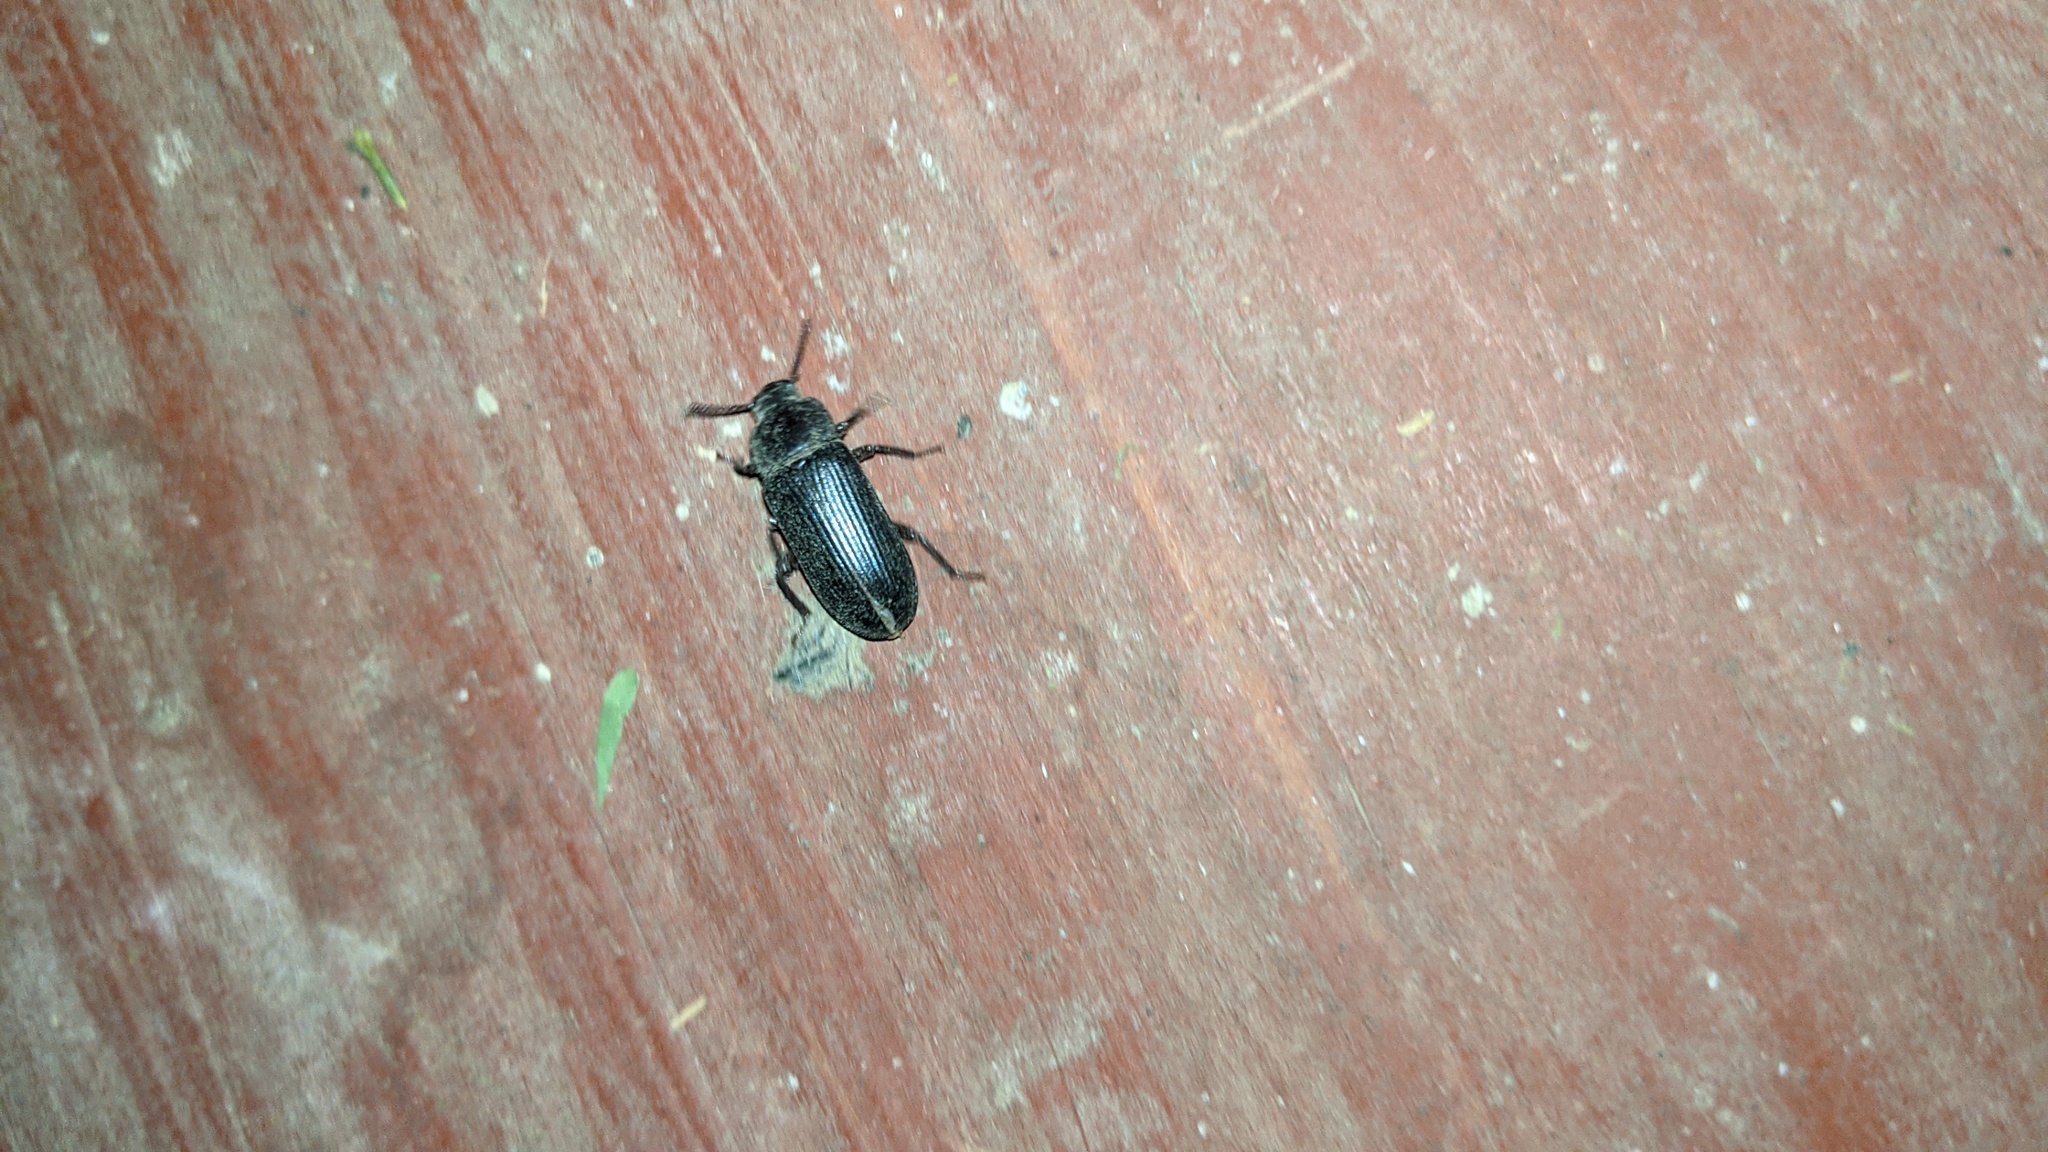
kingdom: Animalia
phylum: Arthropoda
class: Insecta
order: Coleoptera
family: Tenebrionidae
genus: Tenebrio
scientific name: Tenebrio molitor
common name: Hardback beetle
